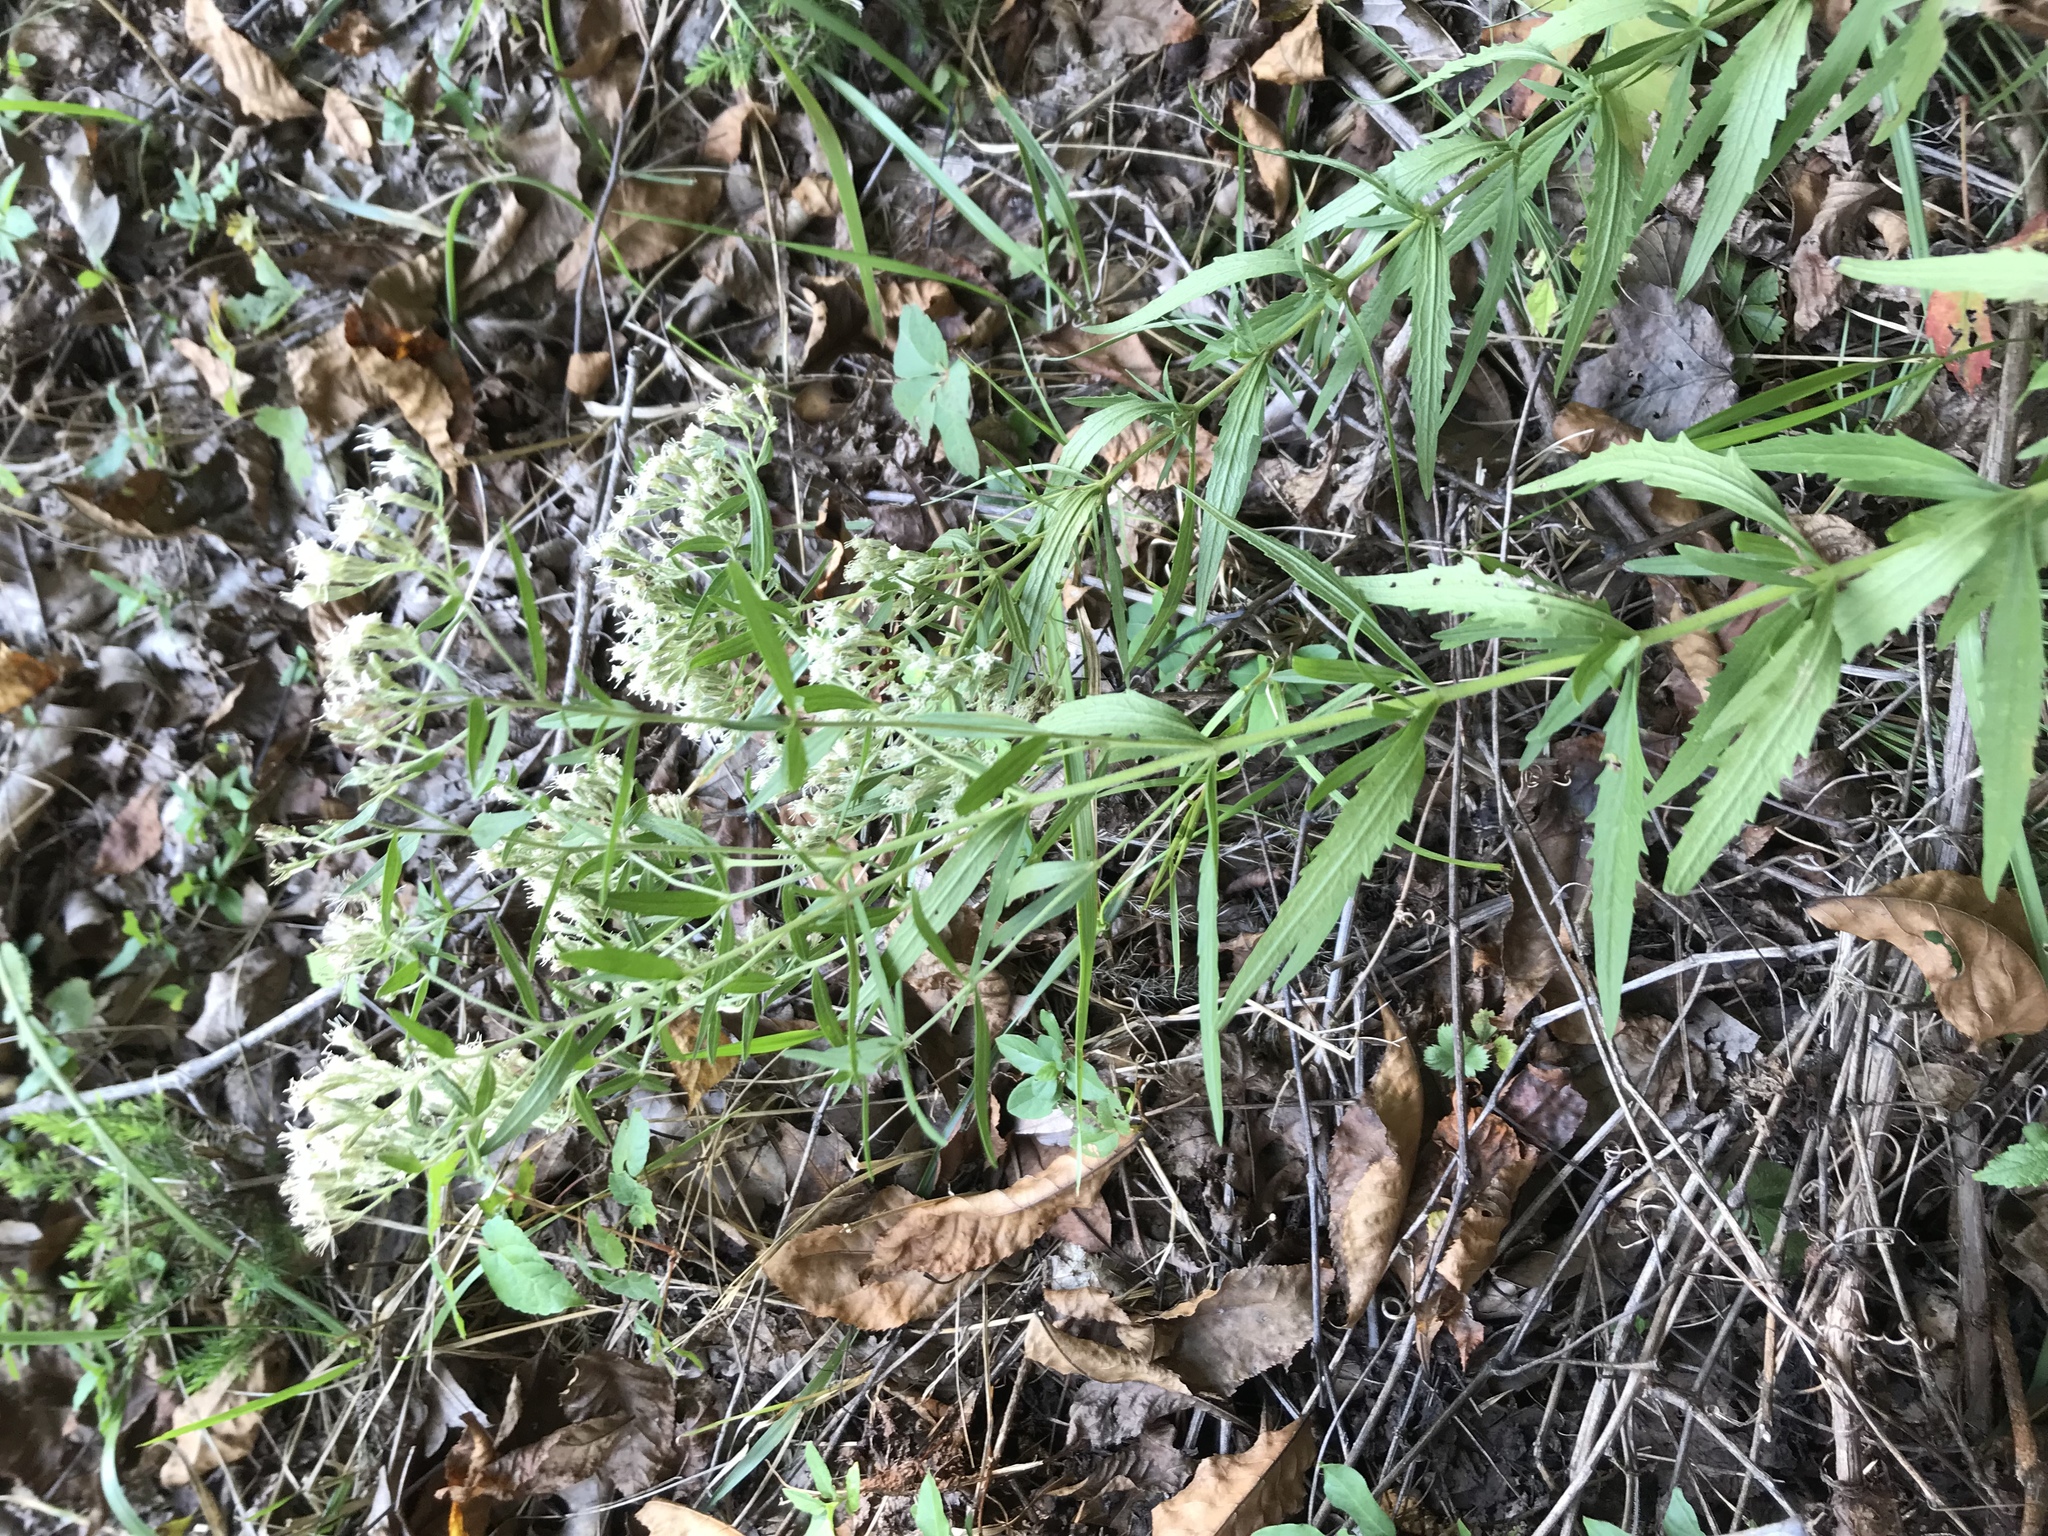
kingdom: Plantae
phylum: Tracheophyta
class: Magnoliopsida
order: Asterales
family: Asteraceae
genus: Eupatorium
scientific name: Eupatorium album
